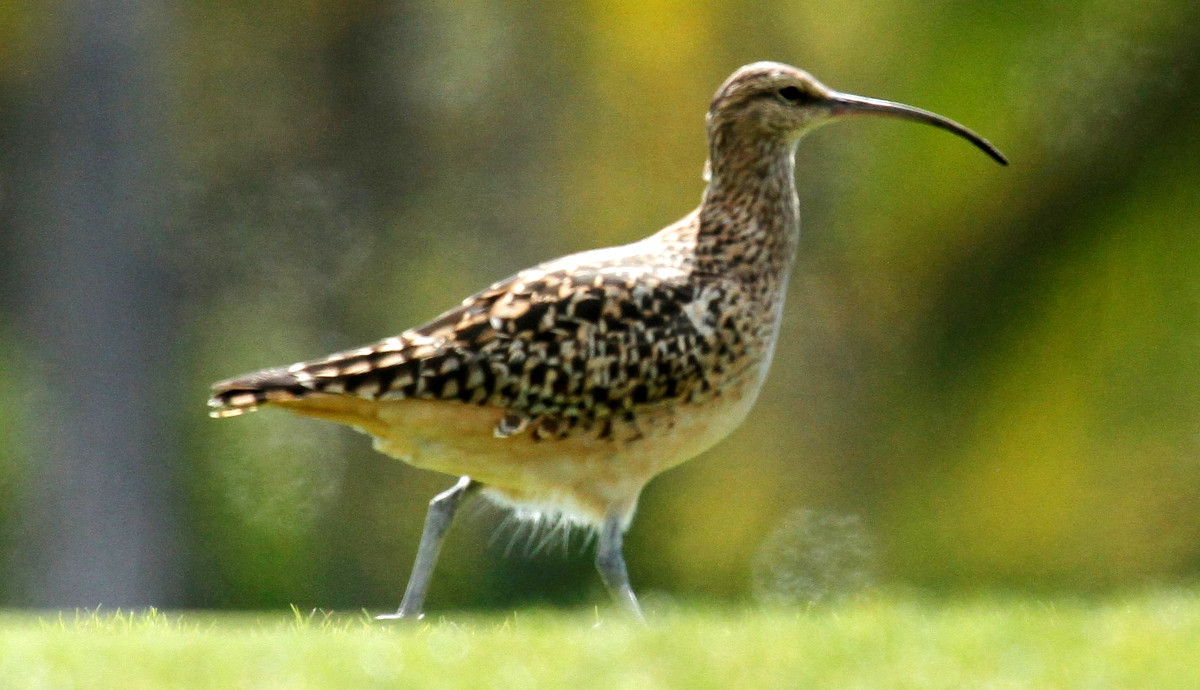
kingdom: Animalia
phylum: Chordata
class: Aves
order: Charadriiformes
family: Scolopacidae
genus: Numenius
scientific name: Numenius tahitiensis
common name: Bristle-thighed curlew
